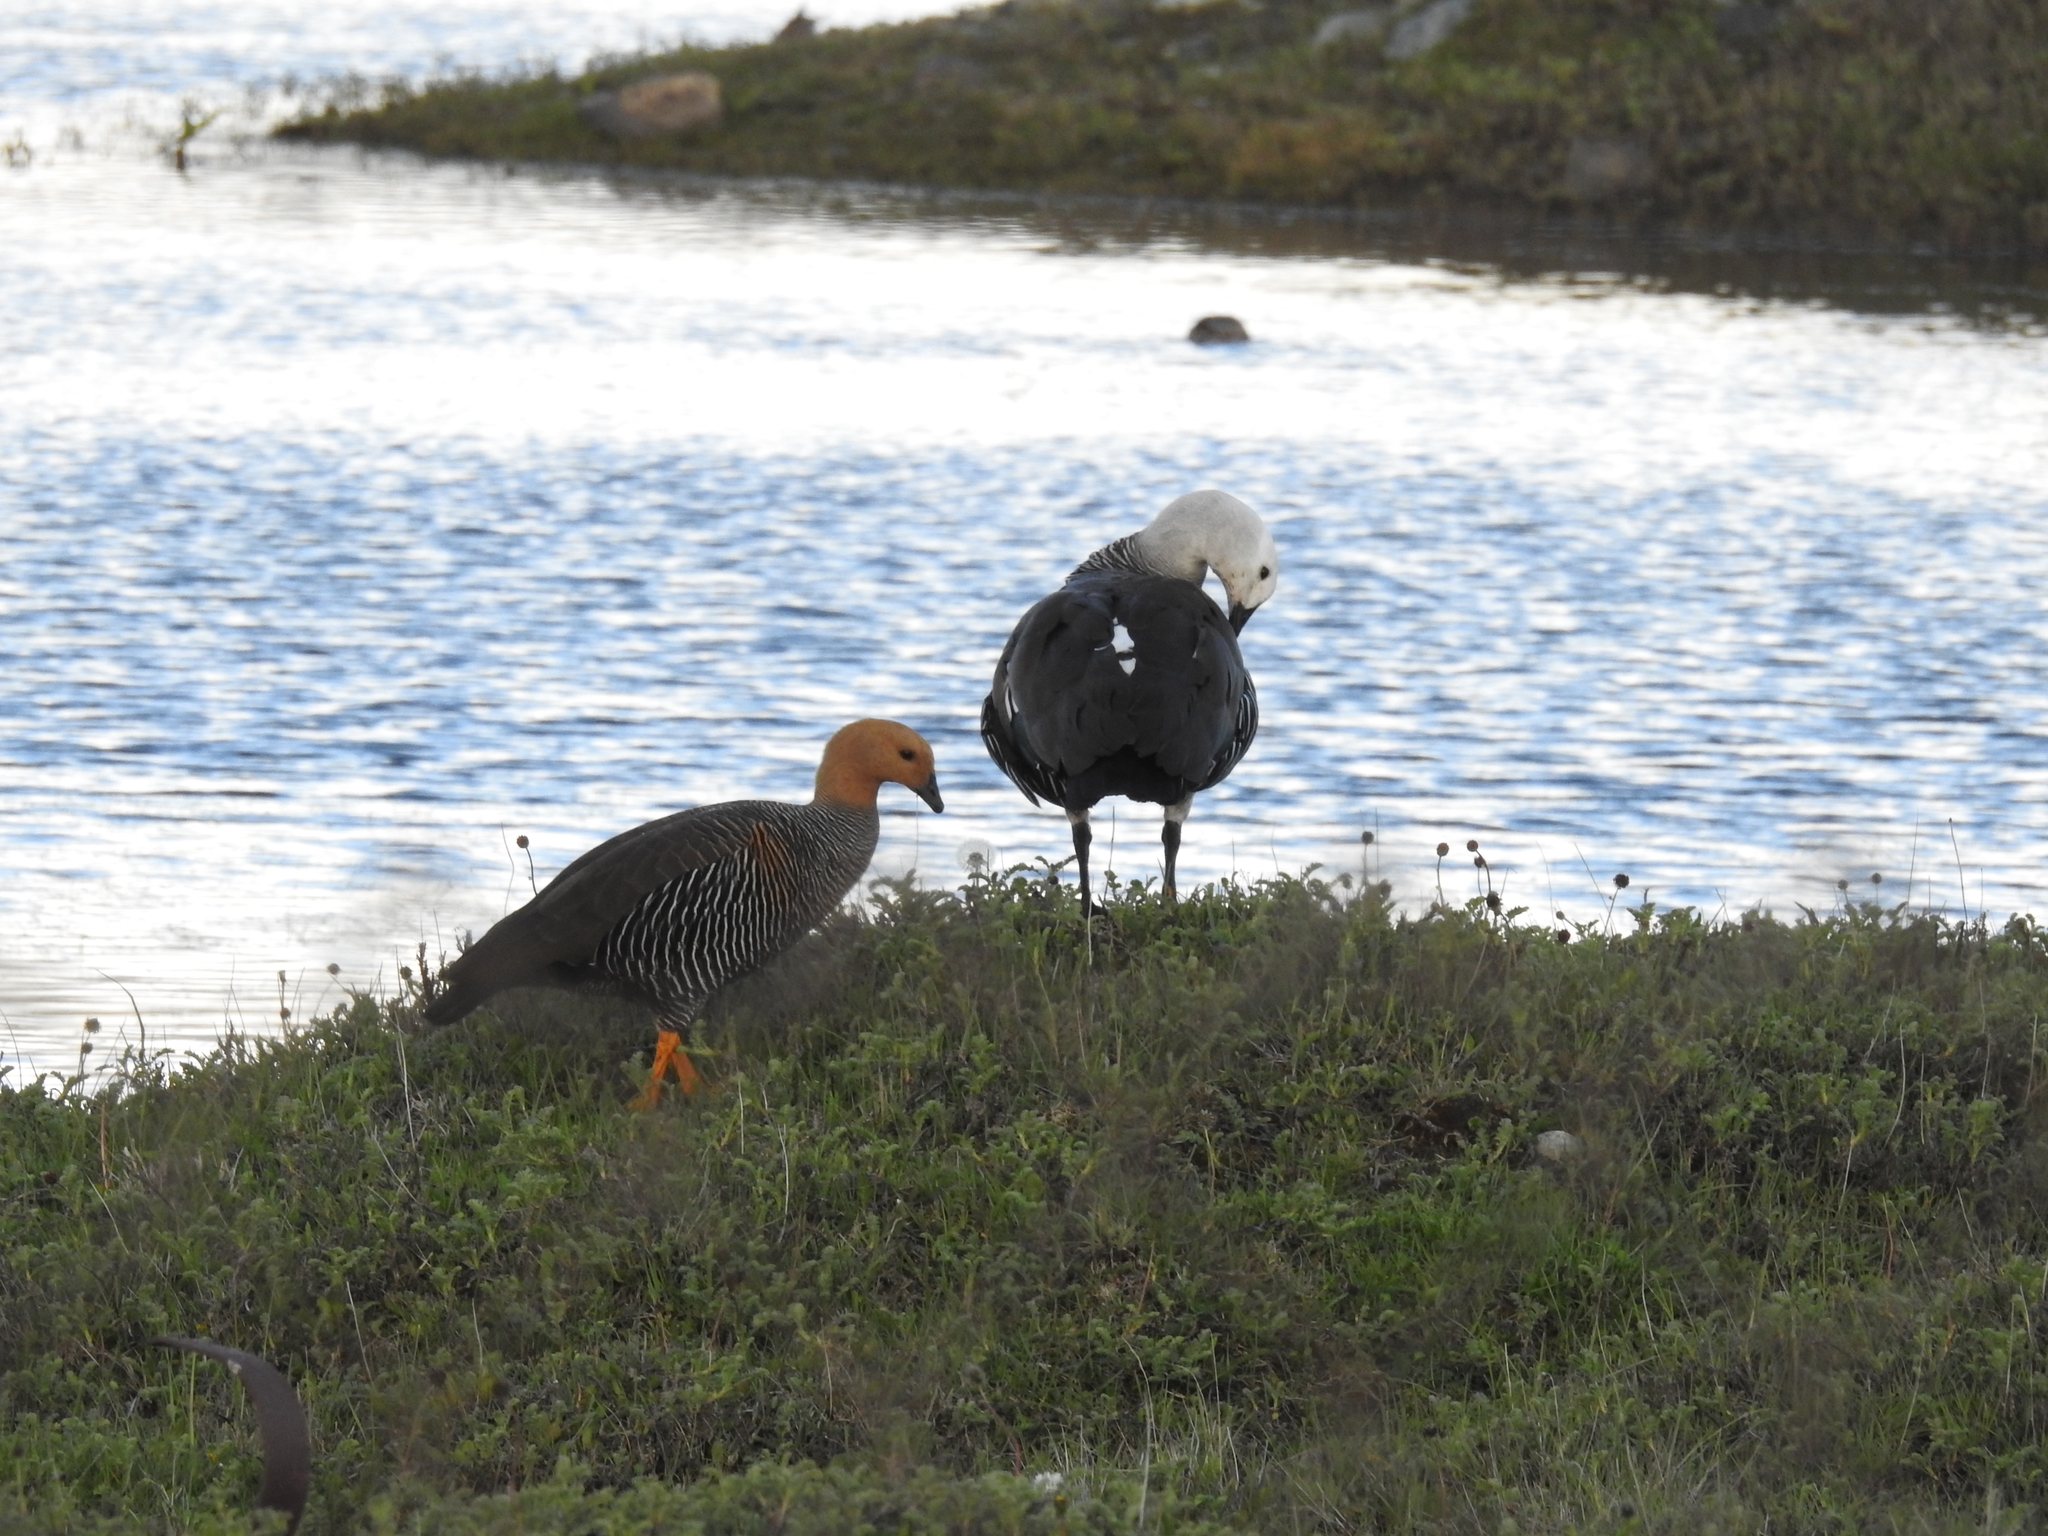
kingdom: Animalia
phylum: Chordata
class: Aves
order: Anseriformes
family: Anatidae
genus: Chloephaga
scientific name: Chloephaga picta
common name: Upland goose
